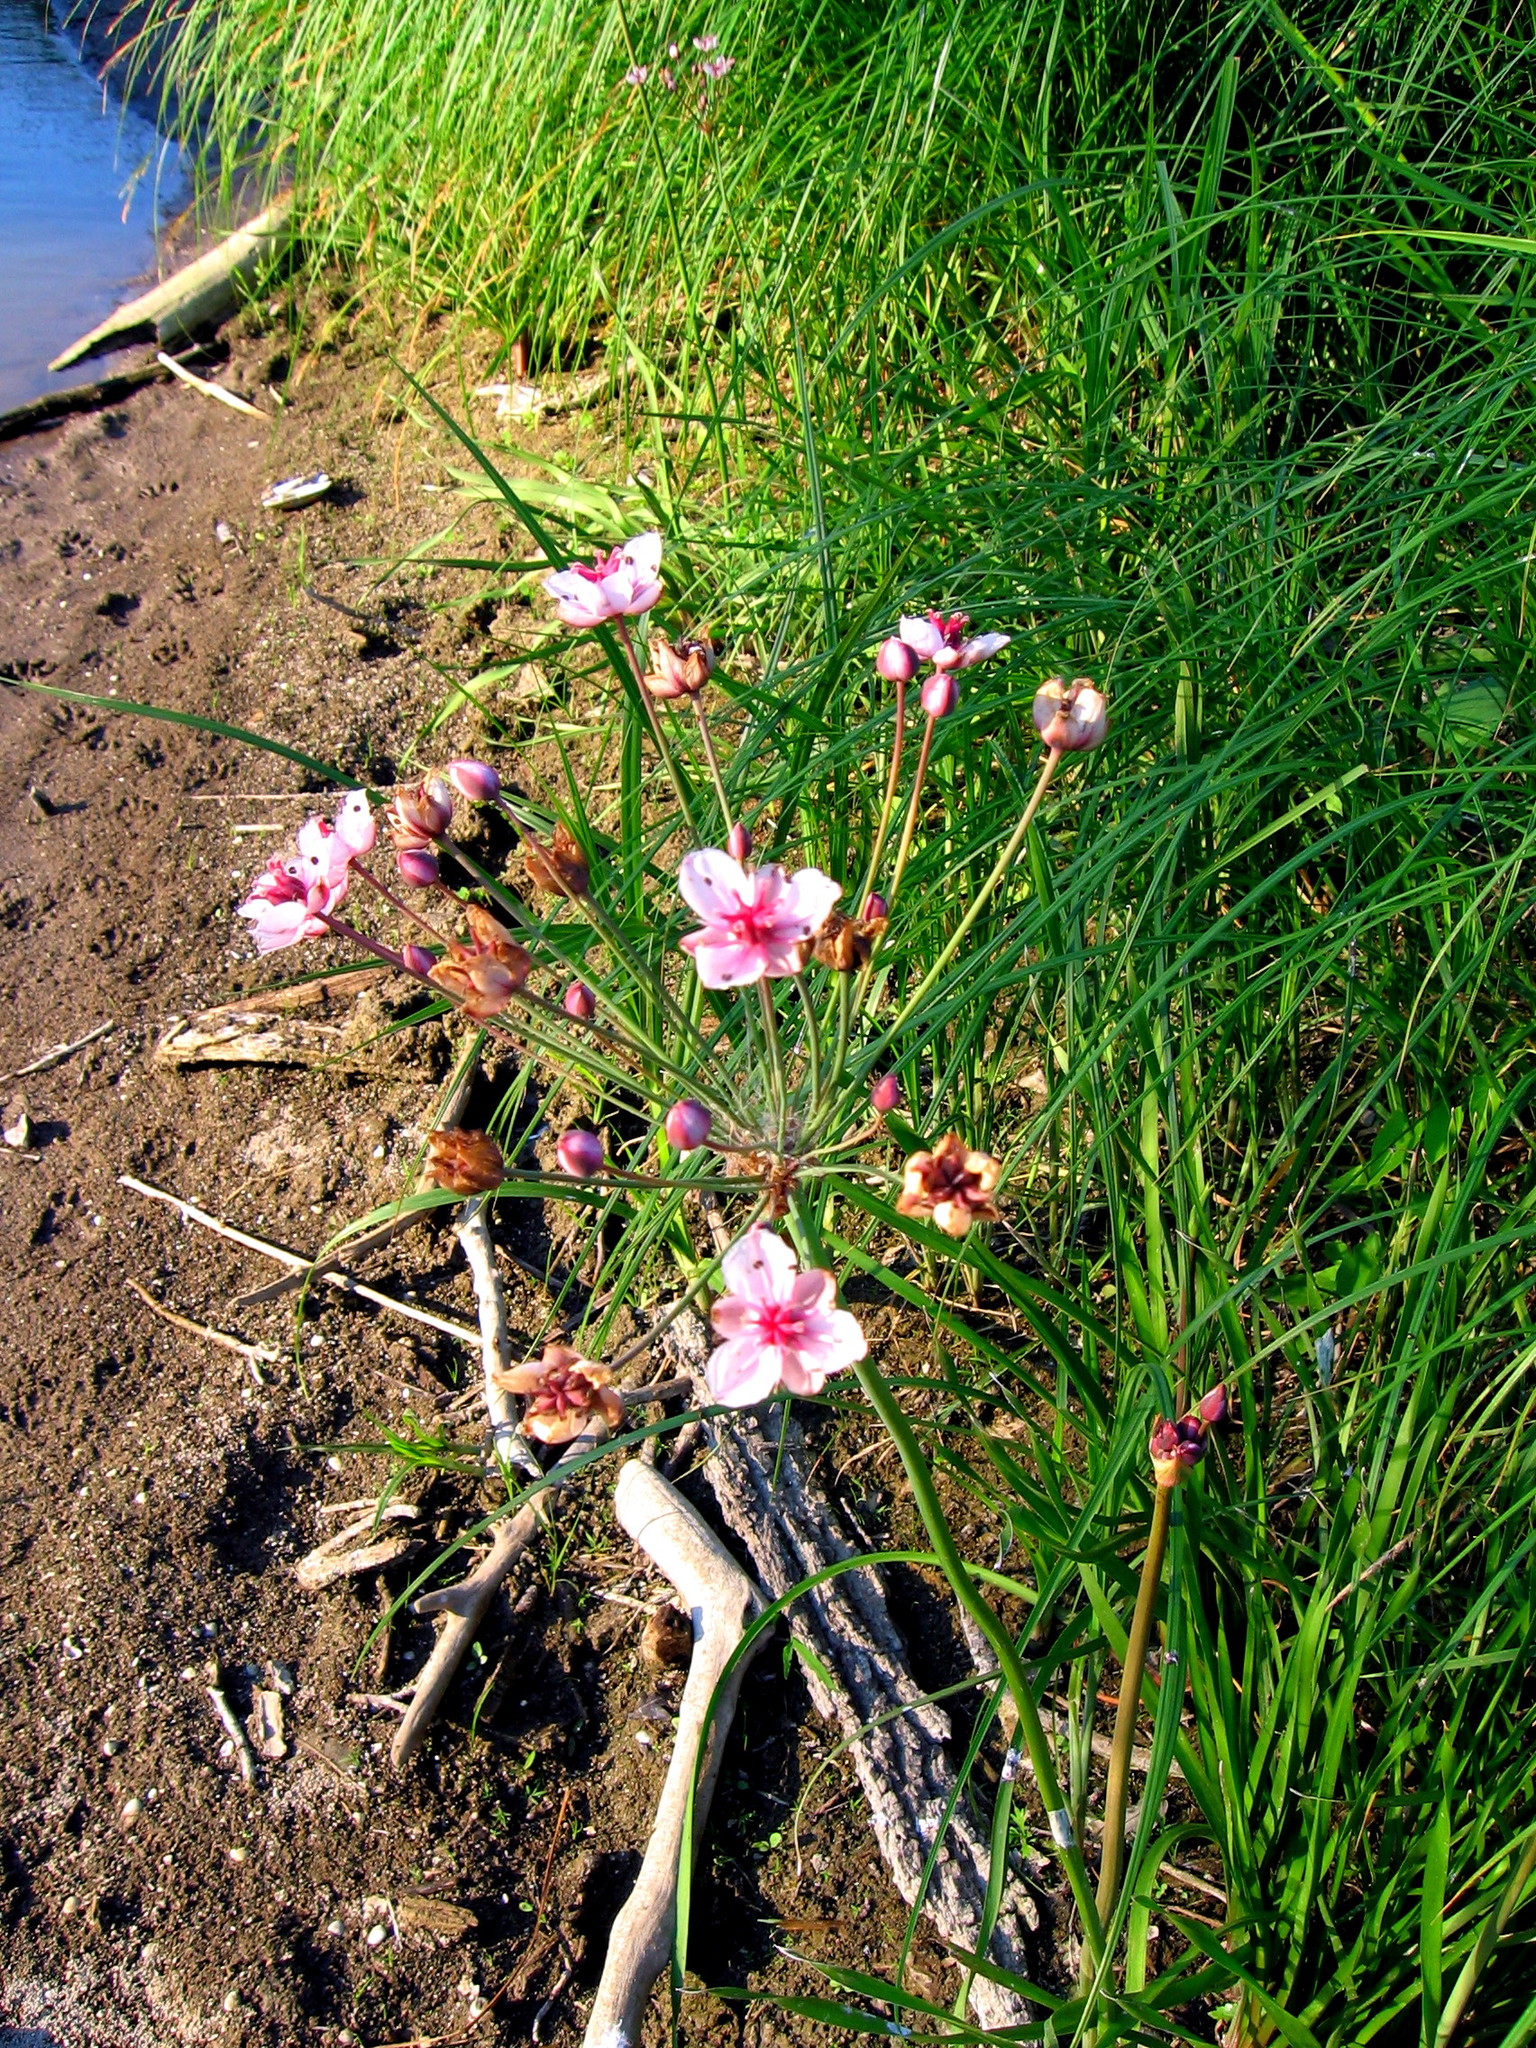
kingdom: Plantae
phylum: Tracheophyta
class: Liliopsida
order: Alismatales
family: Butomaceae
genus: Butomus
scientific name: Butomus umbellatus
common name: Flowering-rush
